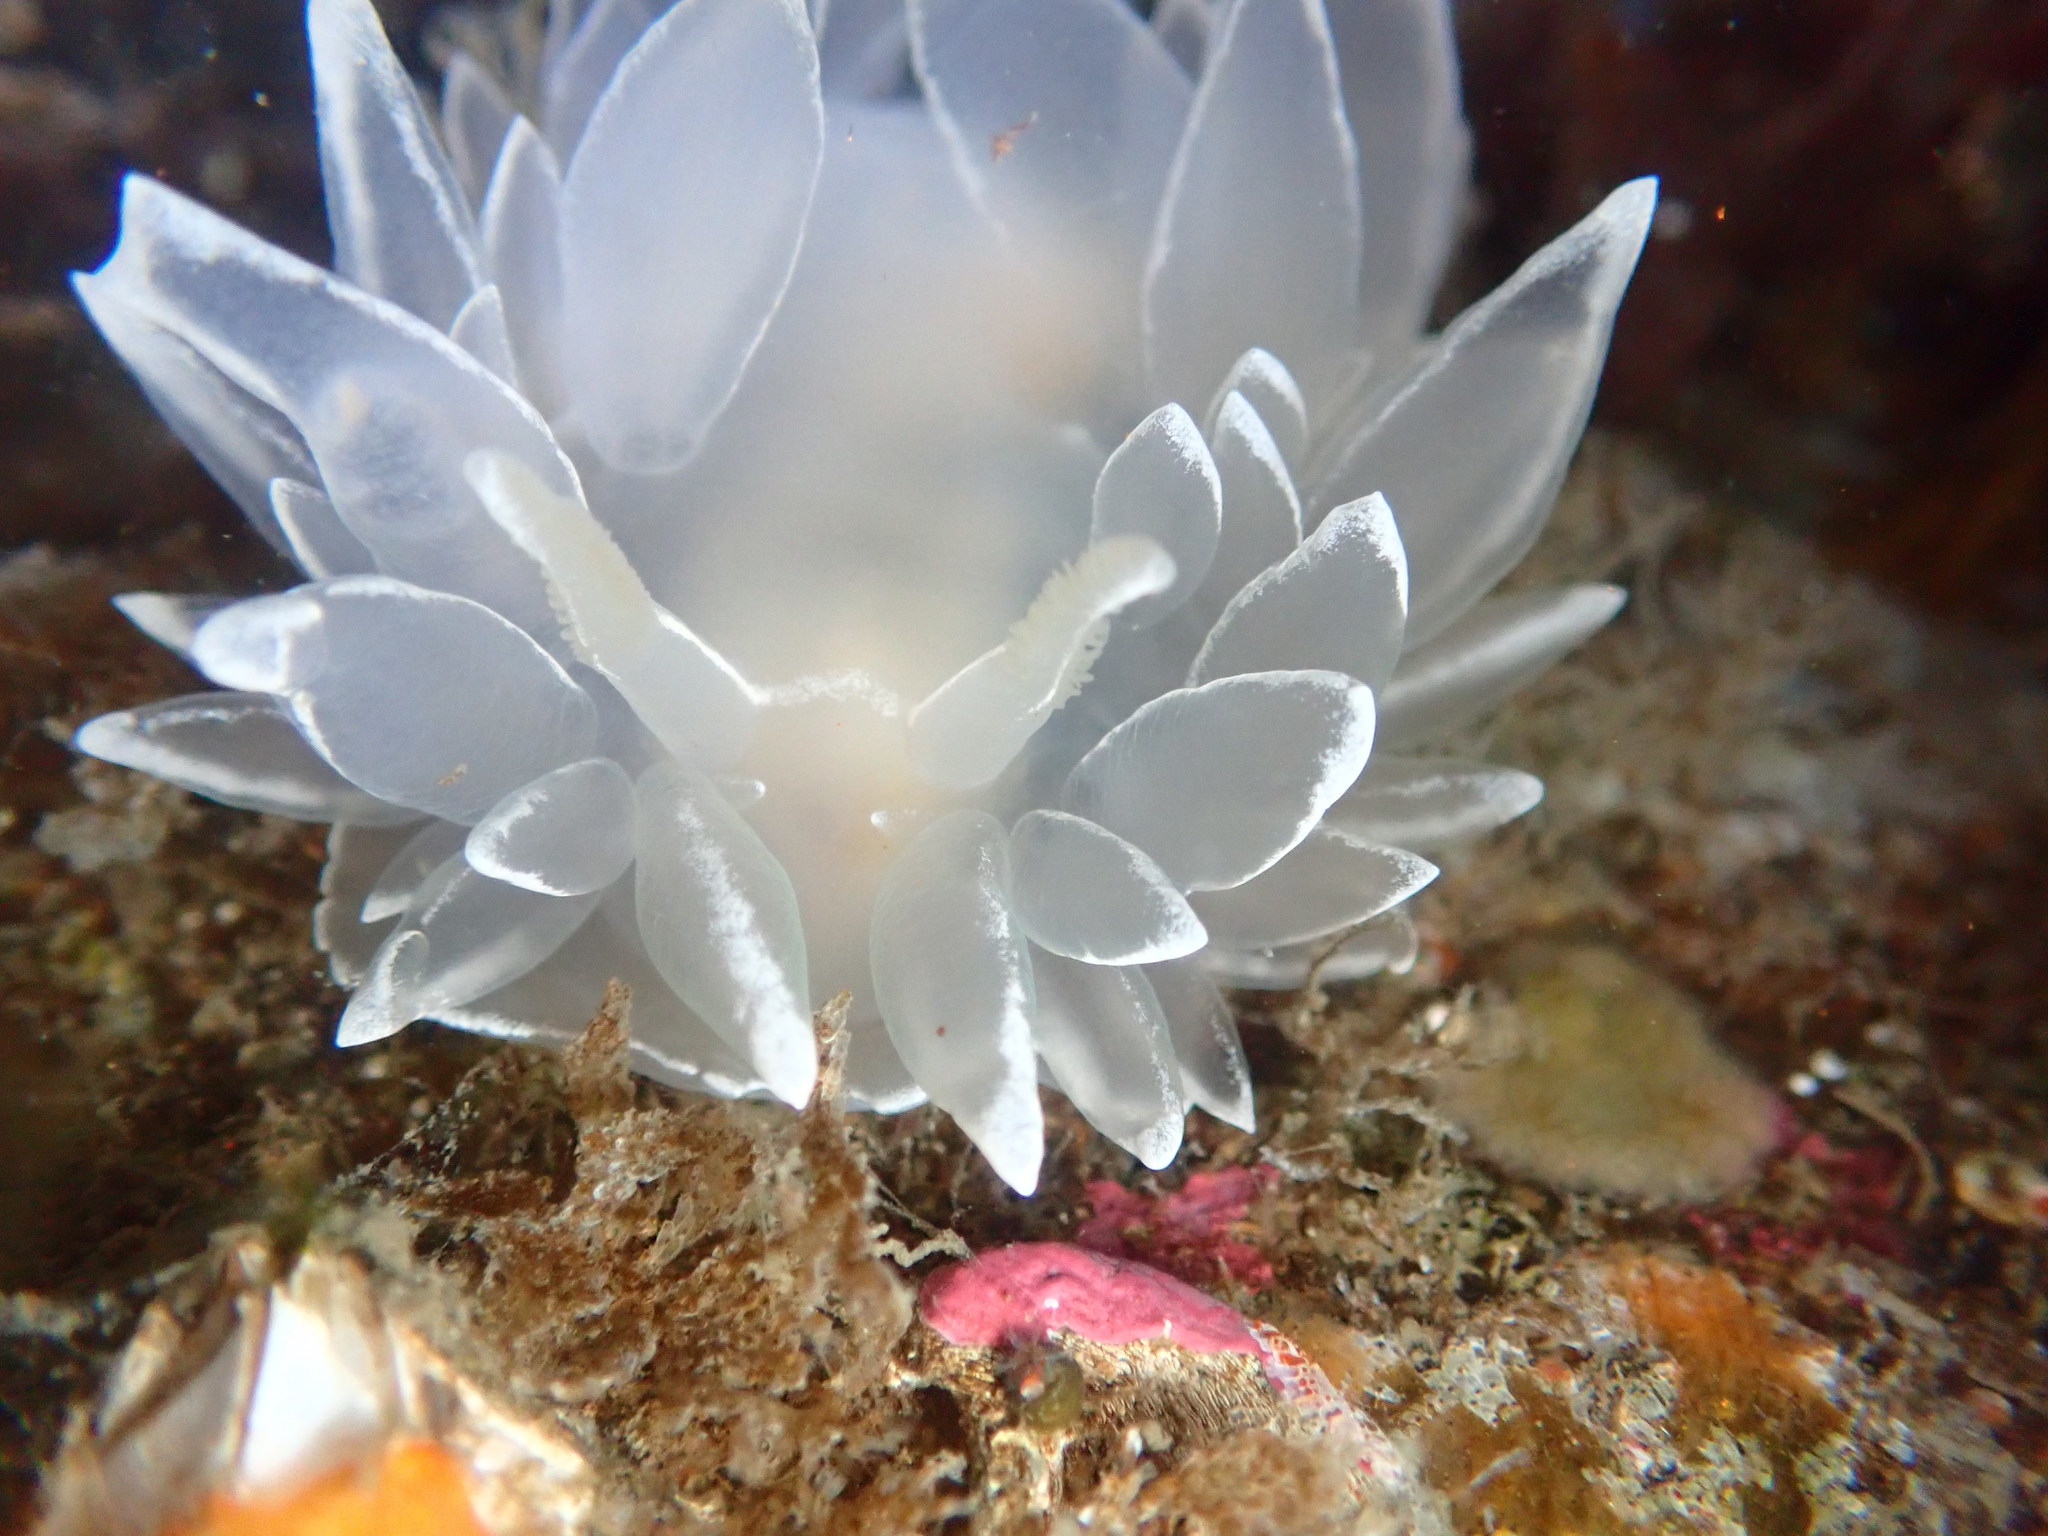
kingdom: Animalia
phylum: Mollusca
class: Gastropoda
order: Nudibranchia
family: Dironidae
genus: Dirona
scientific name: Dirona albolineata
